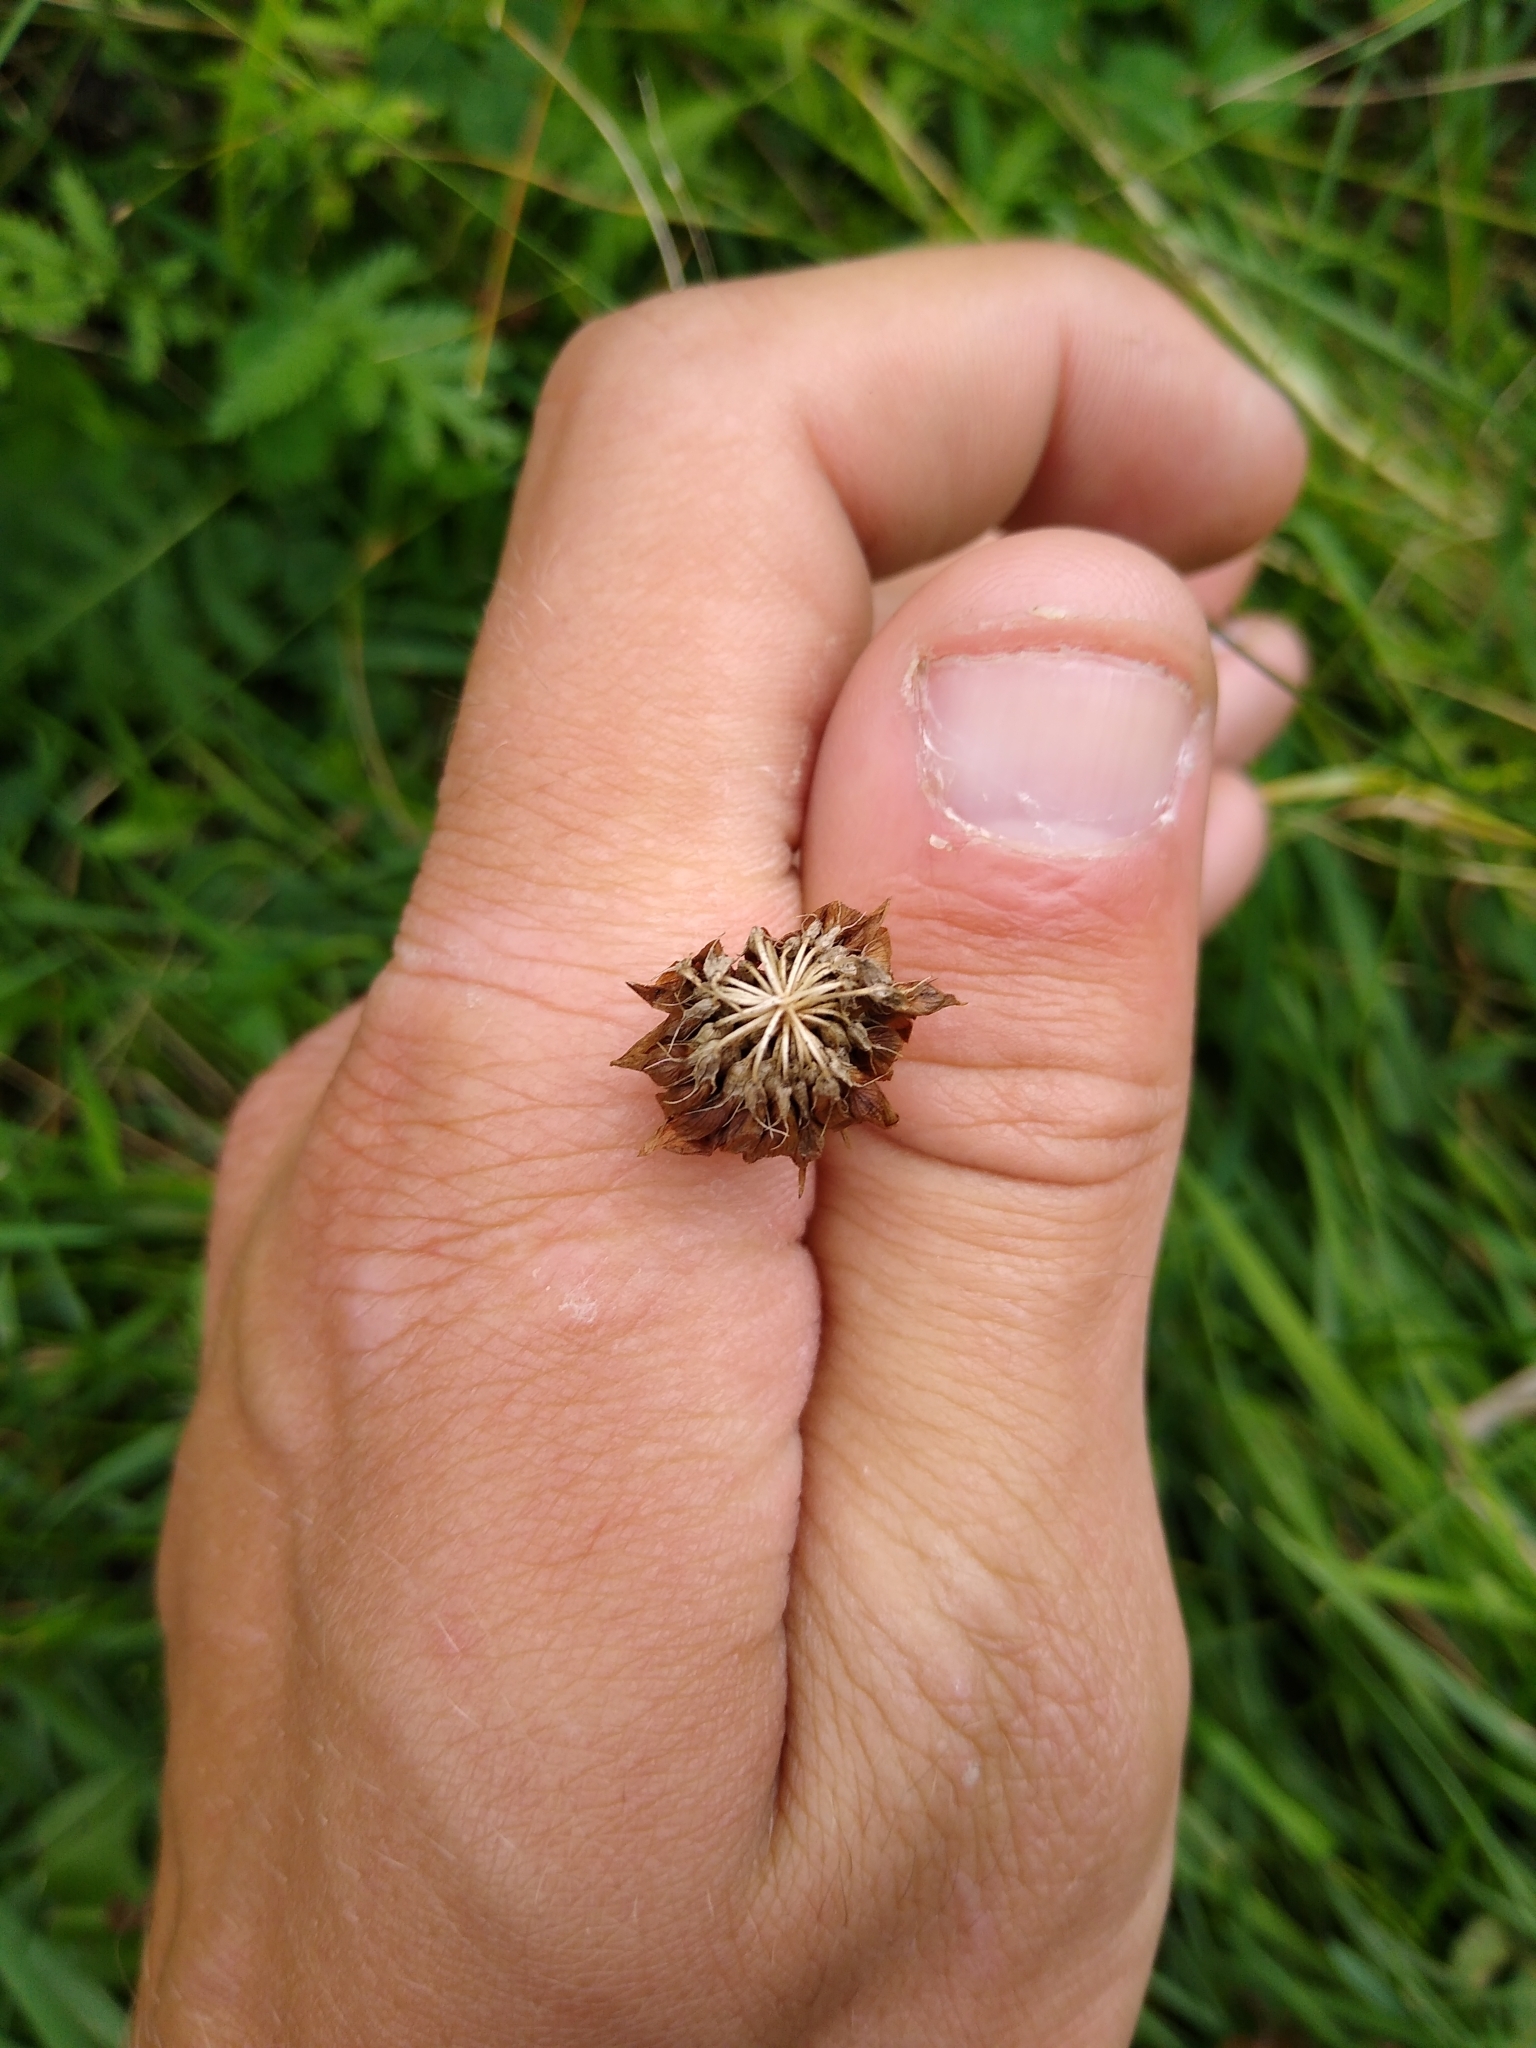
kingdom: Plantae
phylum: Tracheophyta
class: Magnoliopsida
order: Fabales
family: Fabaceae
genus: Trifolium
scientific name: Trifolium repens
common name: White clover
